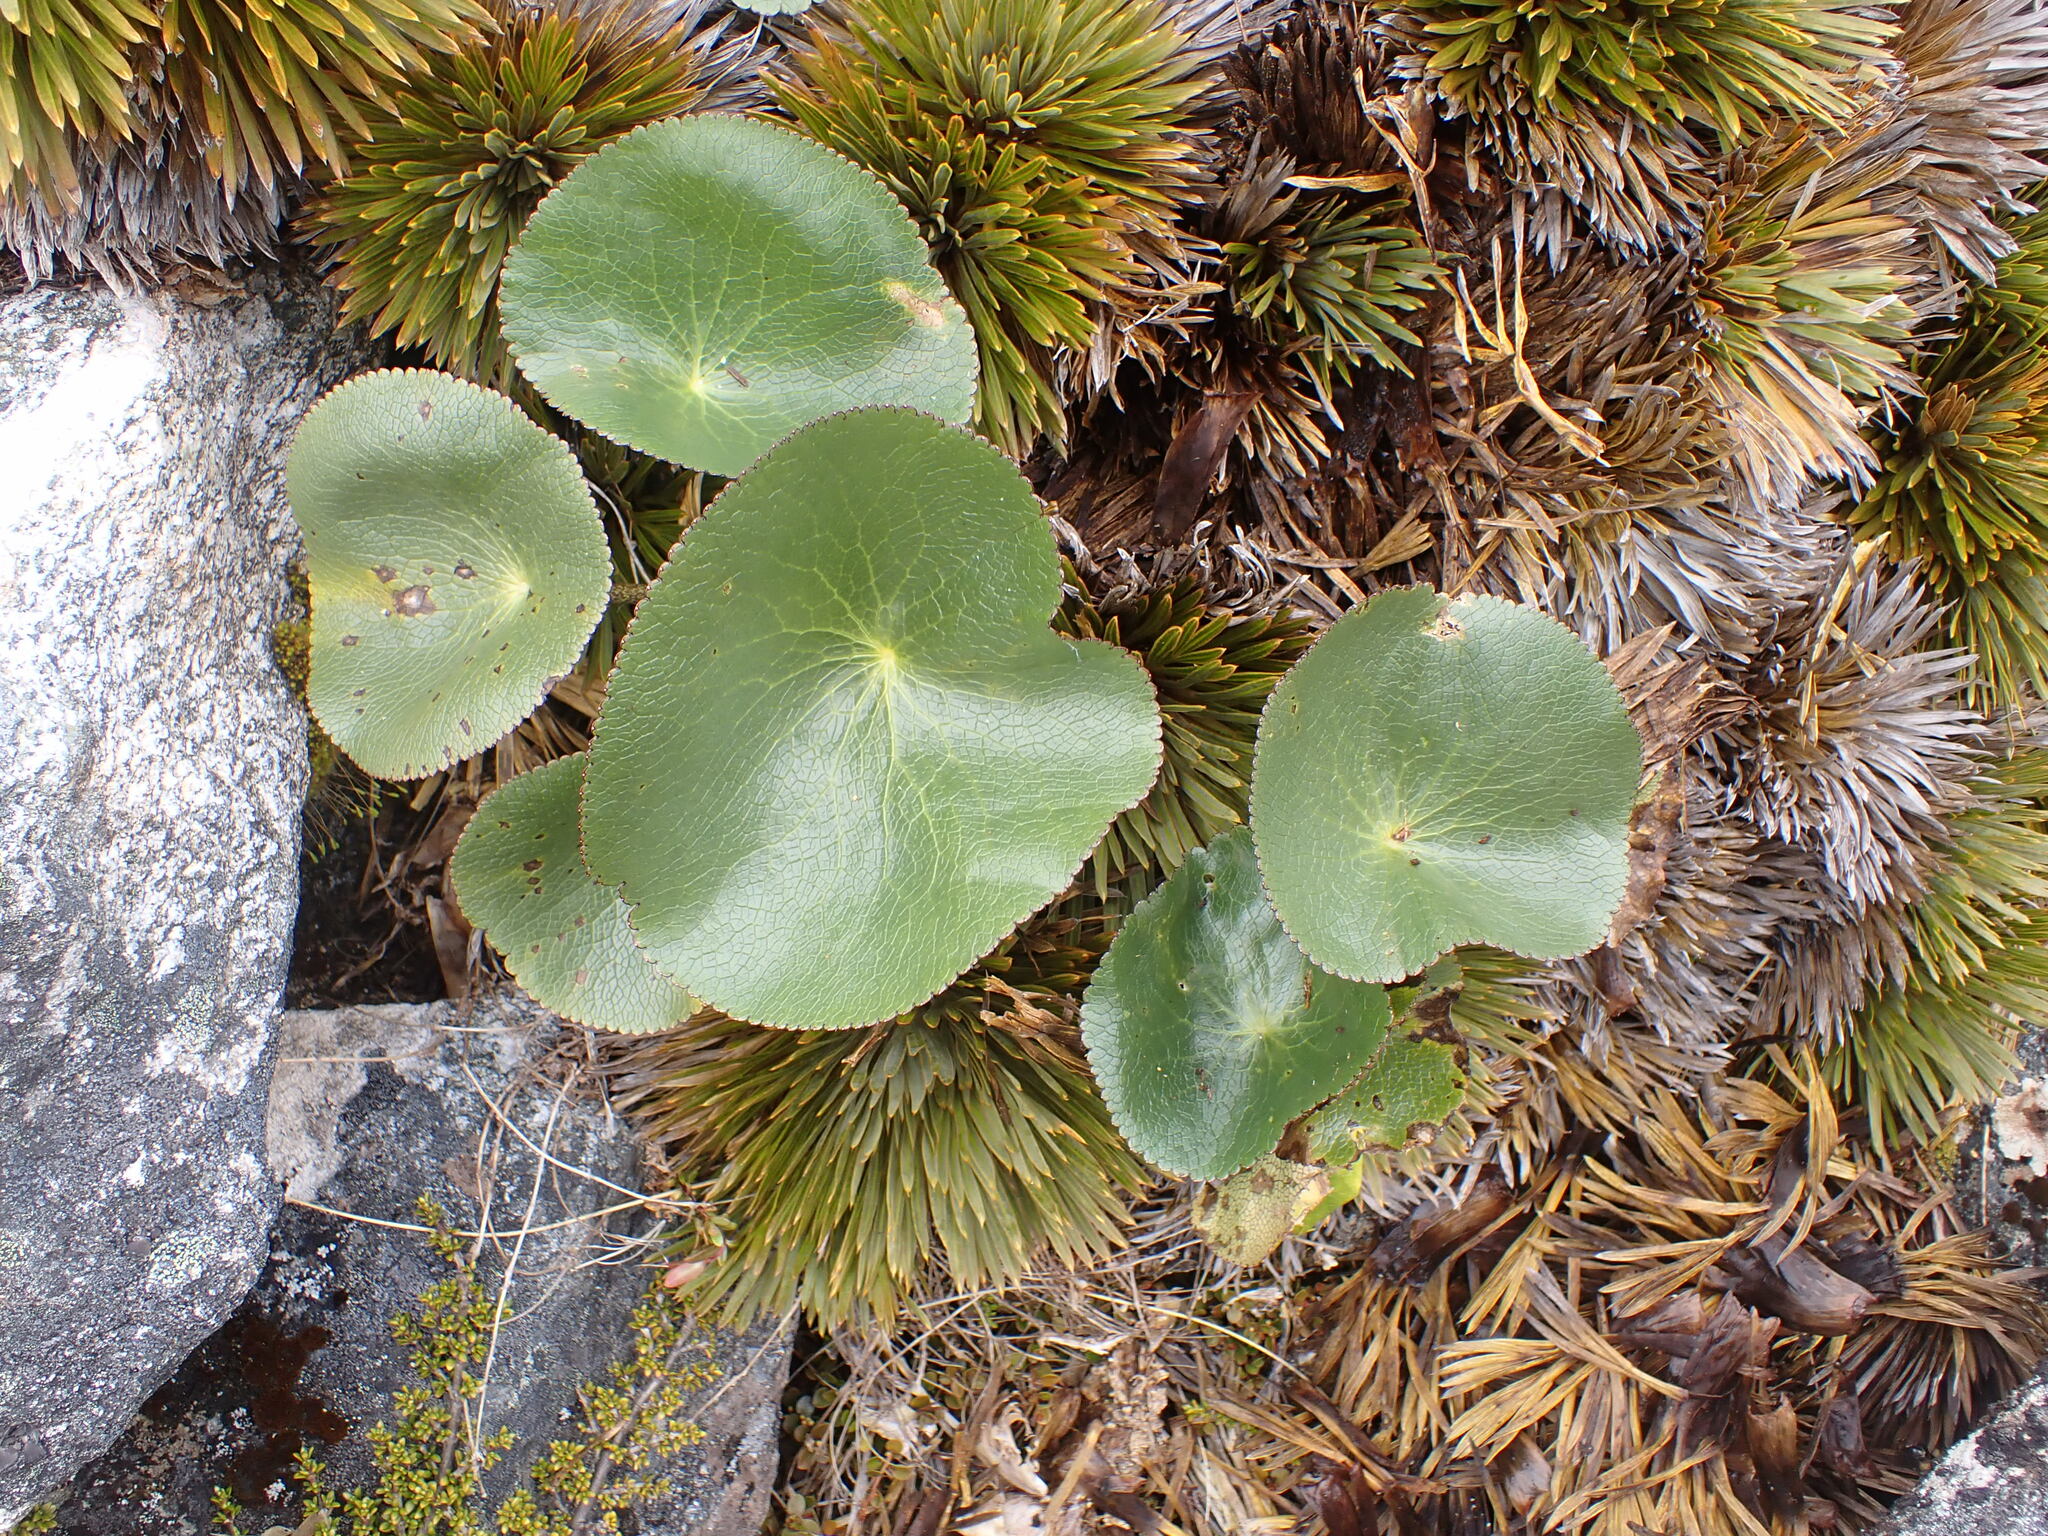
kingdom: Plantae
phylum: Tracheophyta
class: Magnoliopsida
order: Ranunculales
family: Ranunculaceae
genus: Ranunculus
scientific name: Ranunculus lyallii
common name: Mountain-lily
